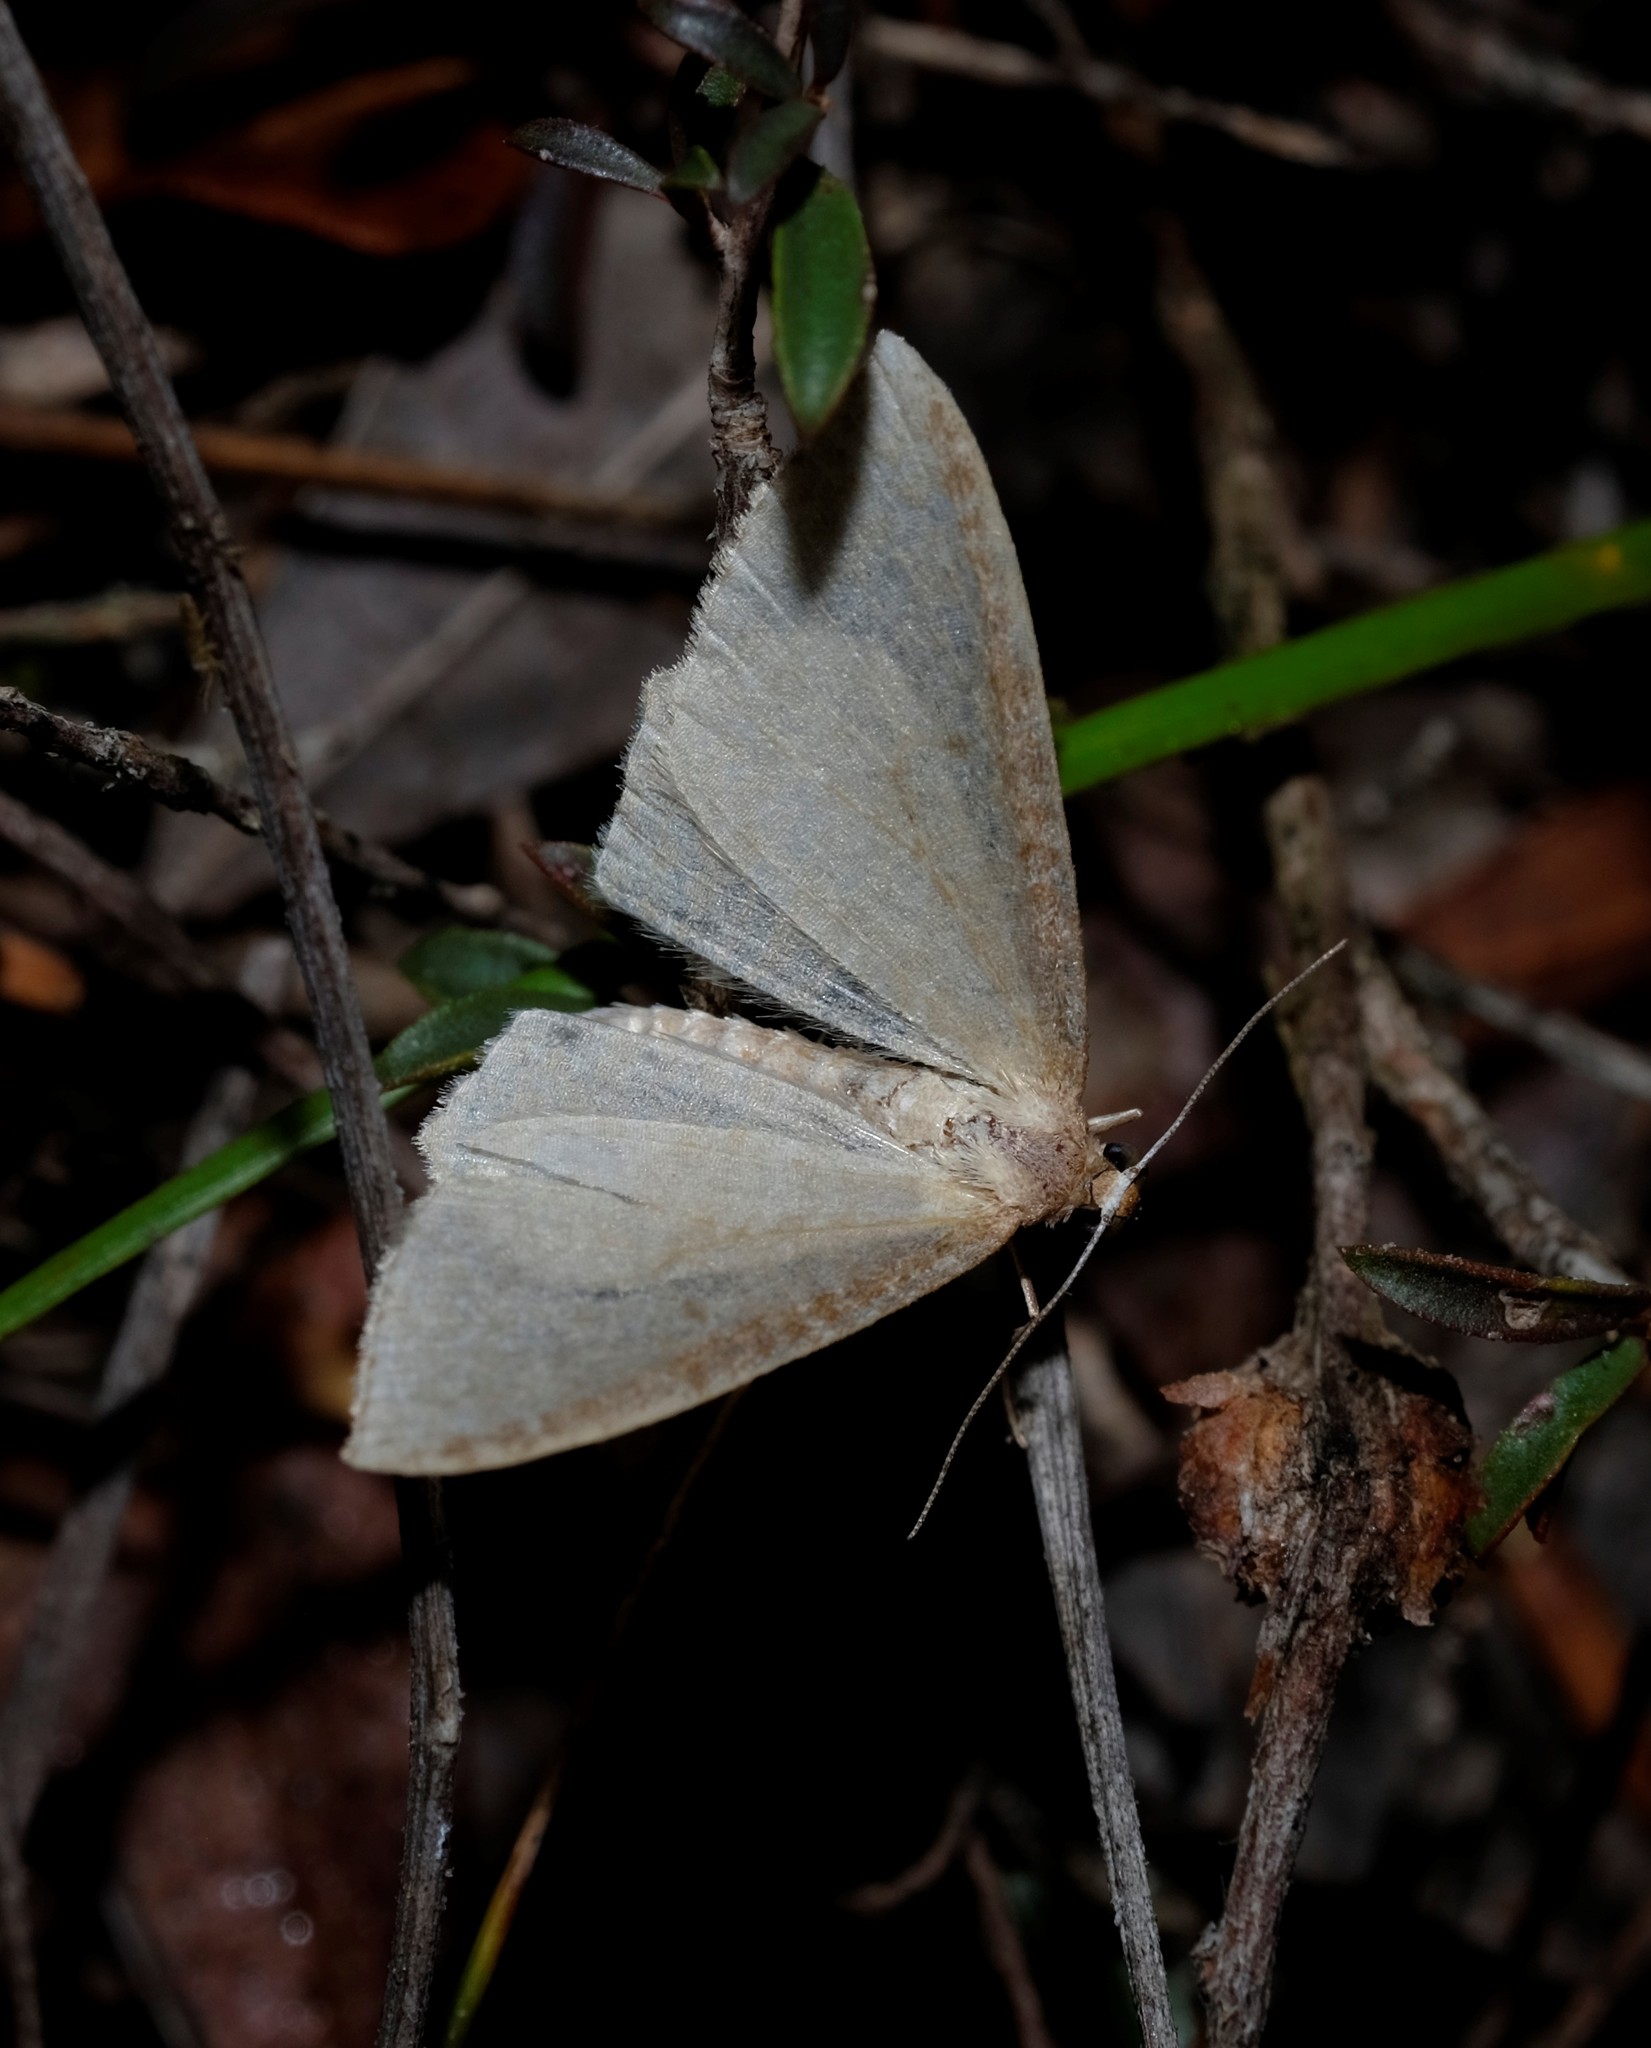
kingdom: Animalia
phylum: Arthropoda
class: Insecta
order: Lepidoptera
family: Geometridae
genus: Poecilasthena
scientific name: Poecilasthena pulchraria
